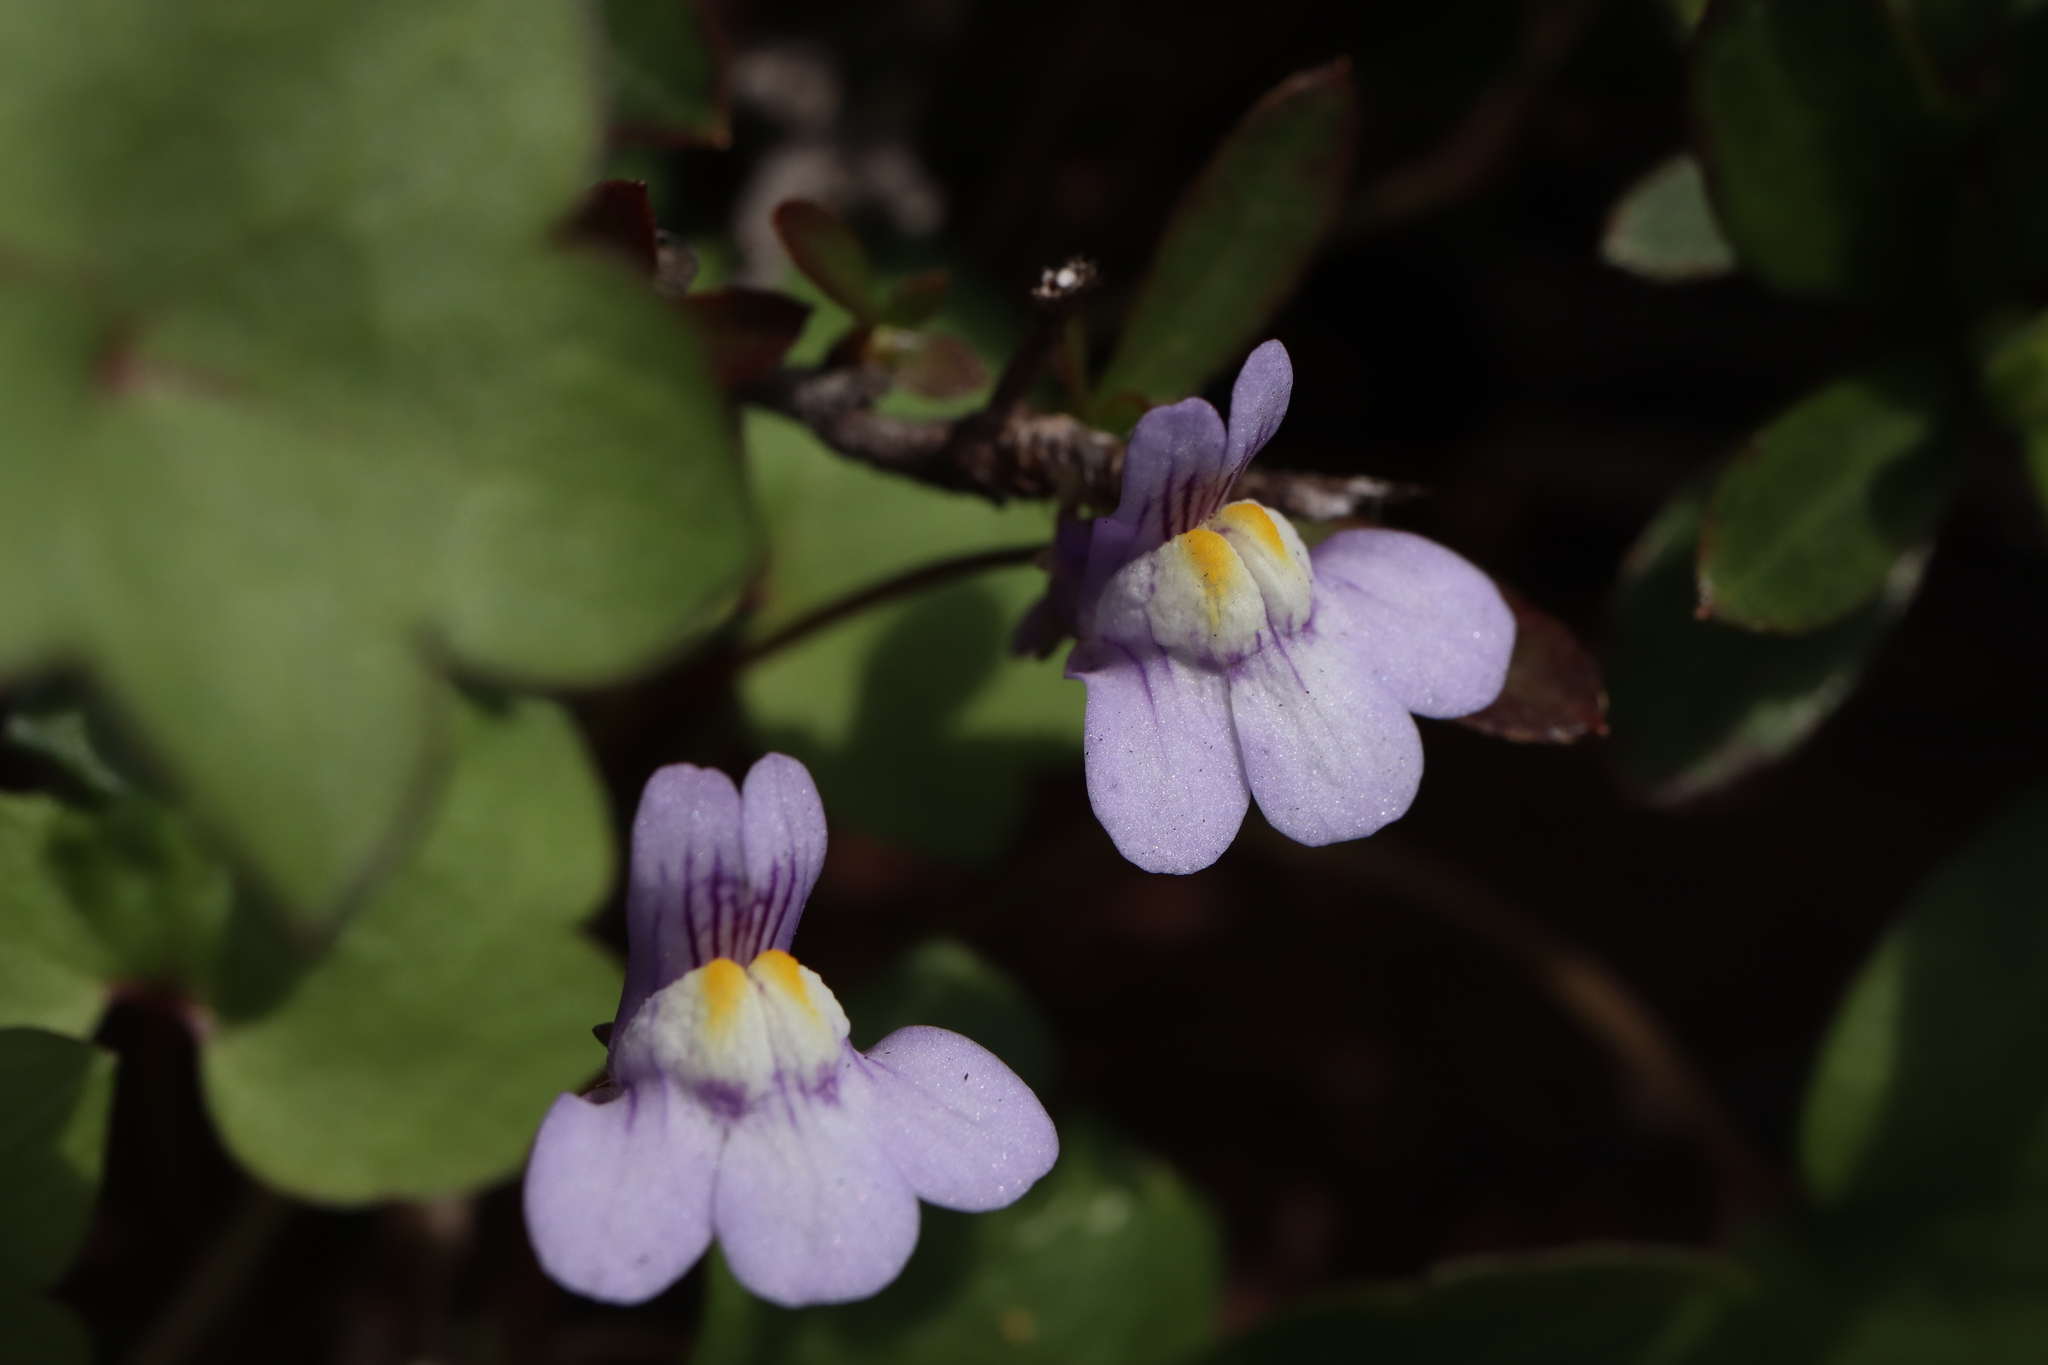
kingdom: Plantae
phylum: Tracheophyta
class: Magnoliopsida
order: Lamiales
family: Plantaginaceae
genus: Cymbalaria
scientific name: Cymbalaria muralis
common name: Ivy-leaved toadflax
